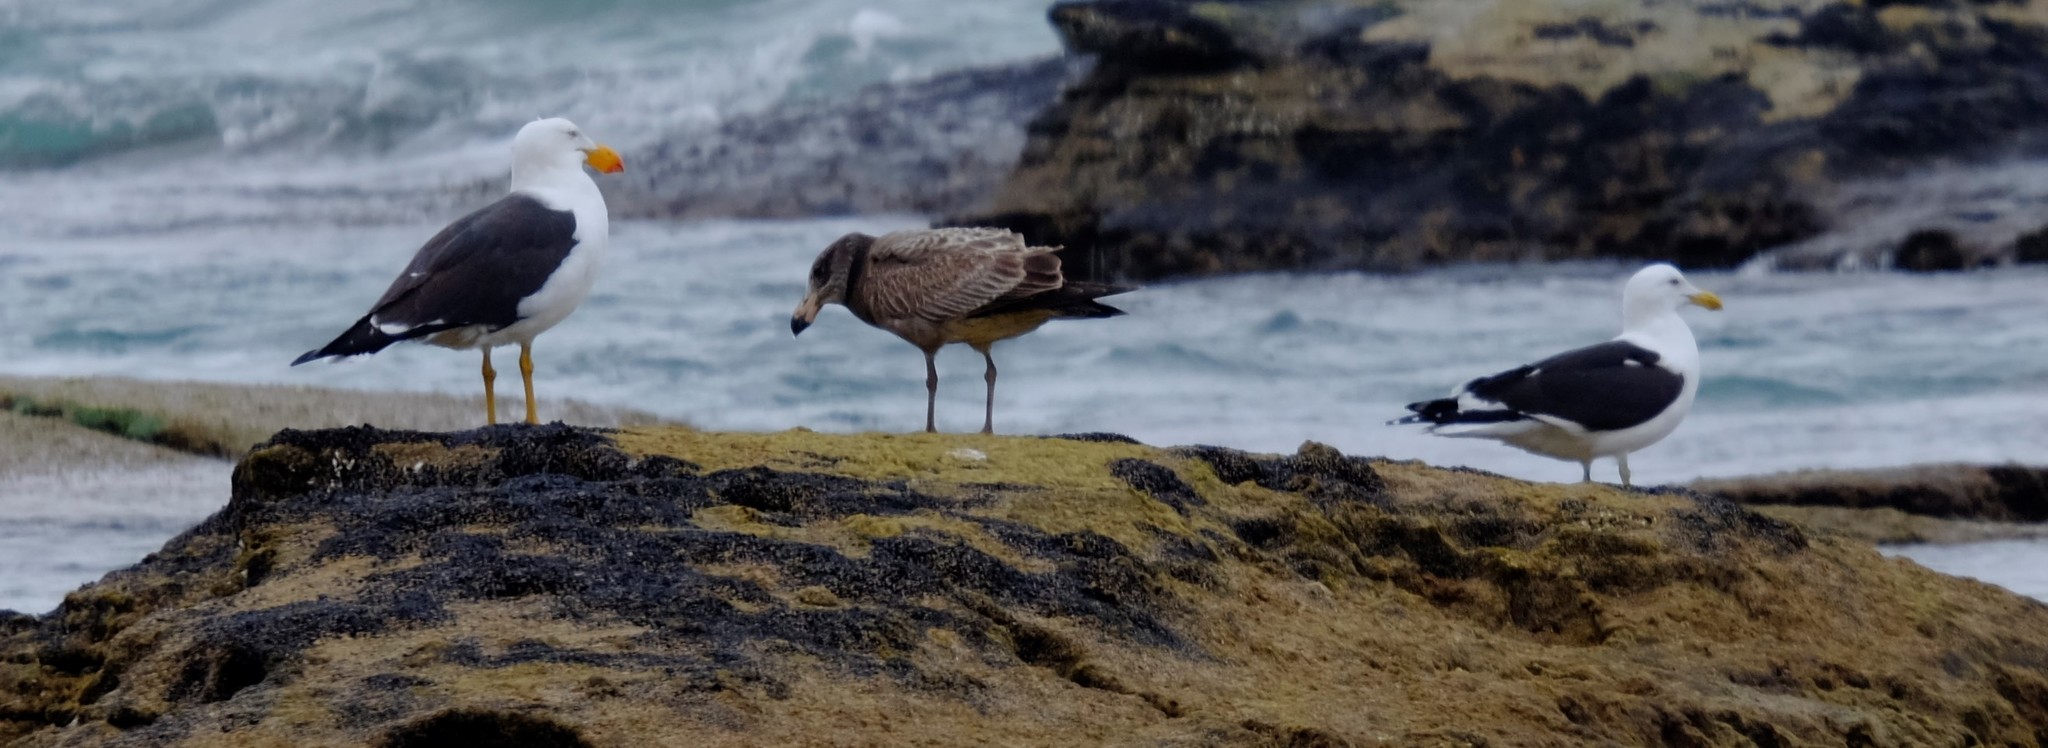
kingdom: Animalia
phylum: Chordata
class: Aves
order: Charadriiformes
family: Laridae
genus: Larus
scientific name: Larus pacificus
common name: Pacific gull
